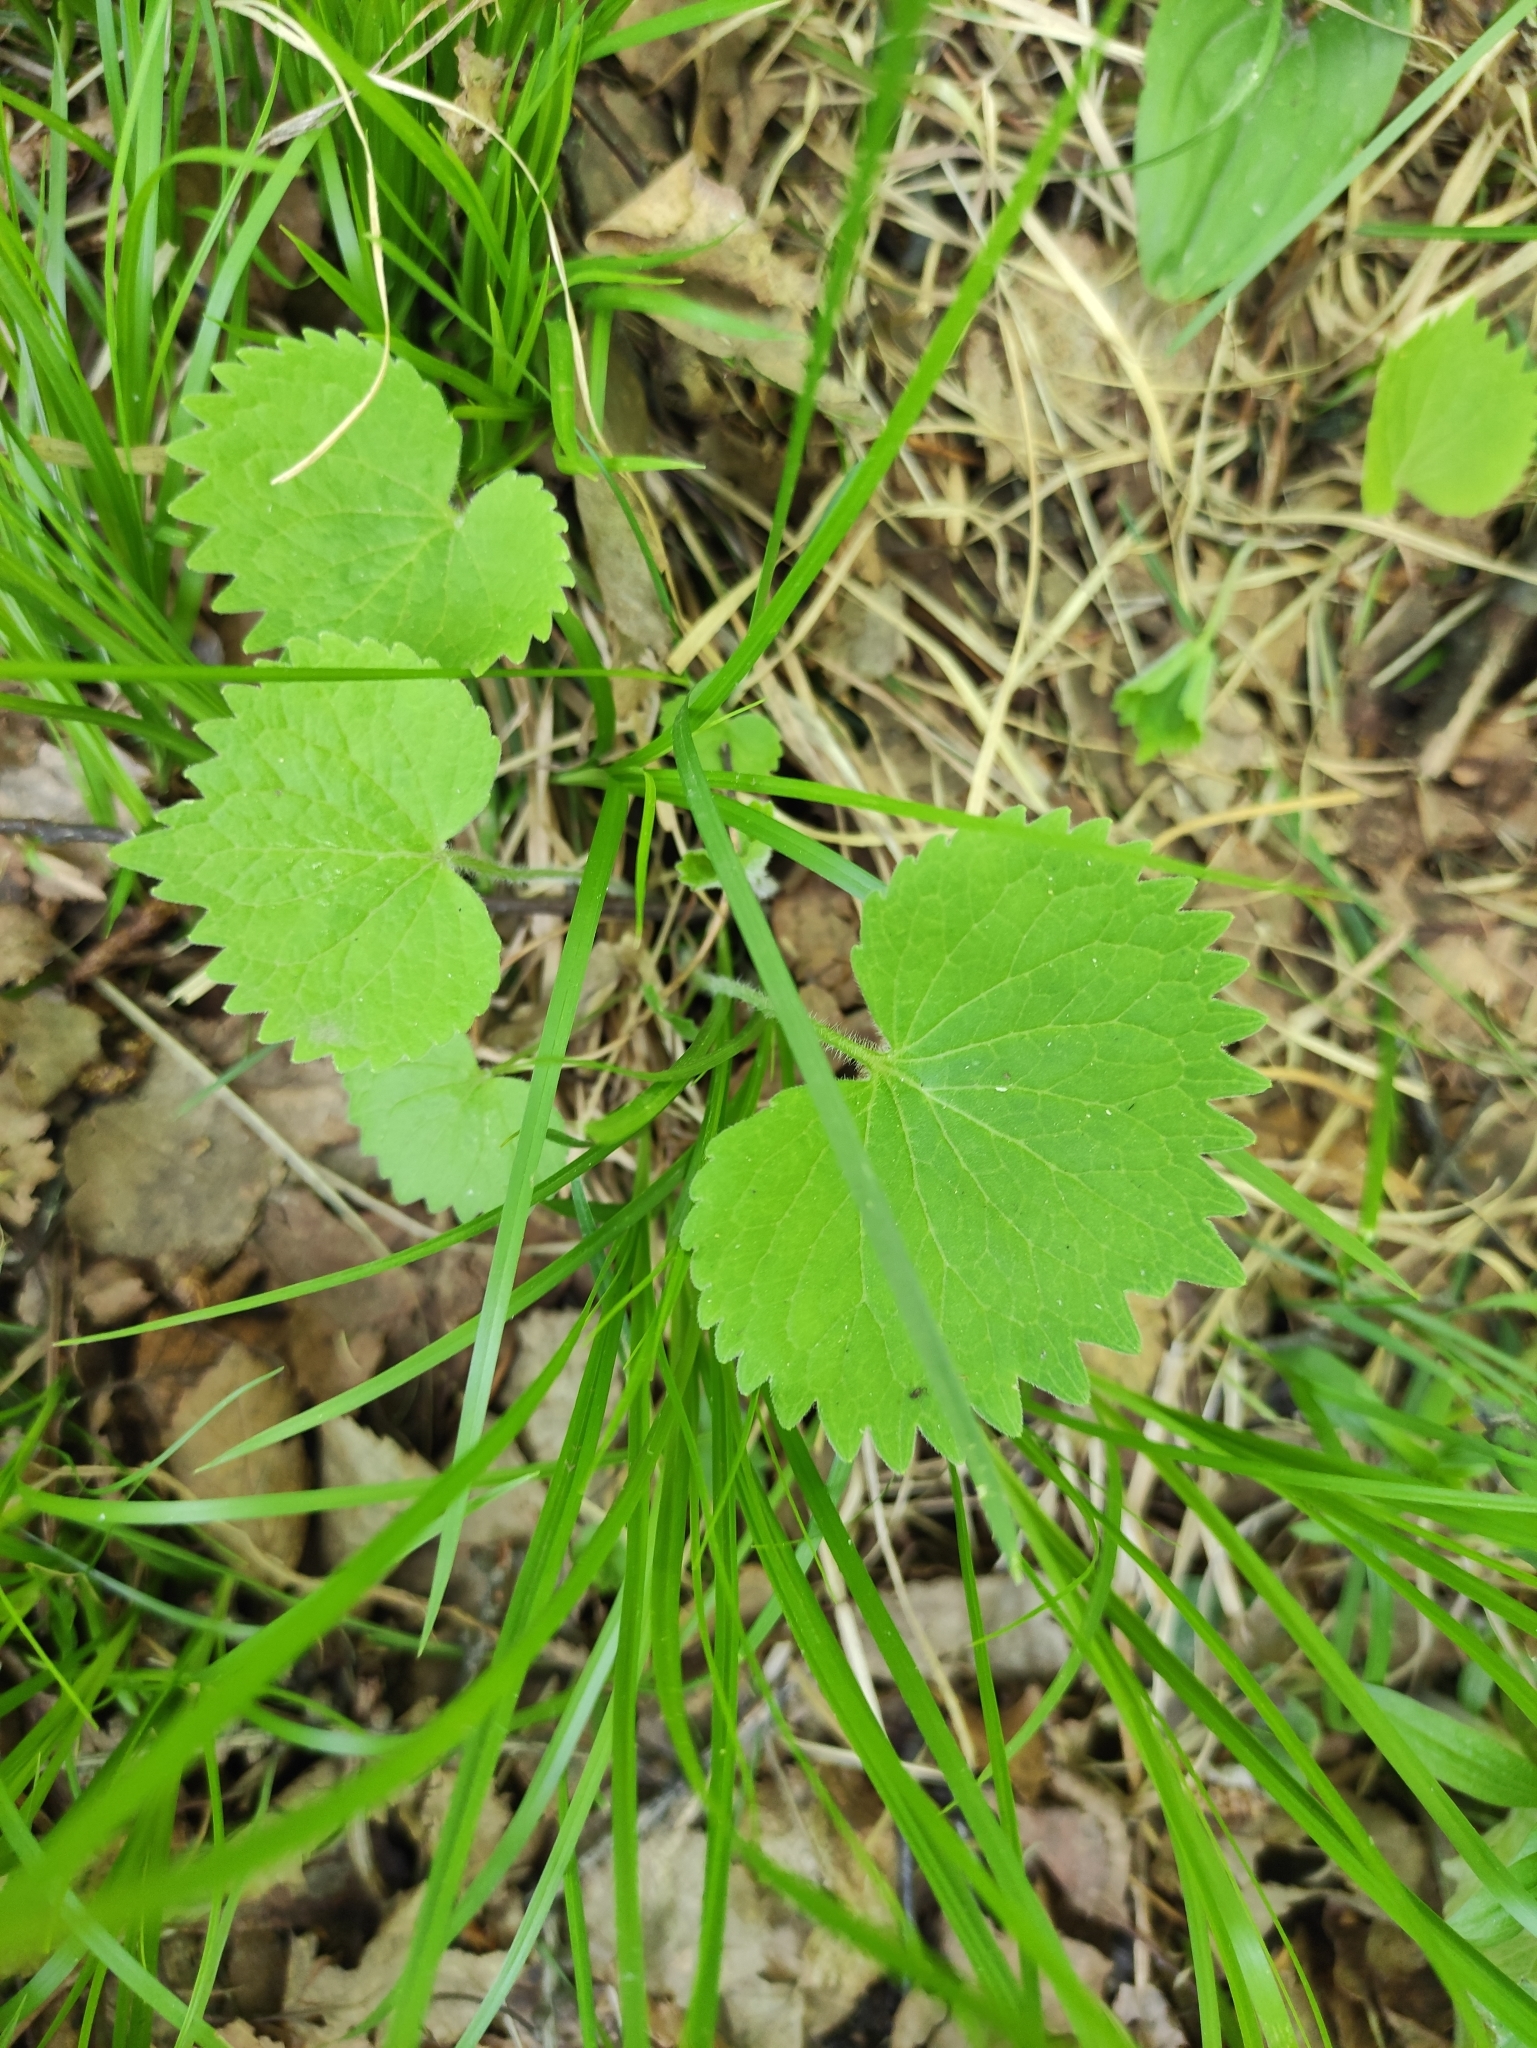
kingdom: Plantae
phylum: Tracheophyta
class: Magnoliopsida
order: Malpighiales
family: Violaceae
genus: Viola
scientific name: Viola uniflora
